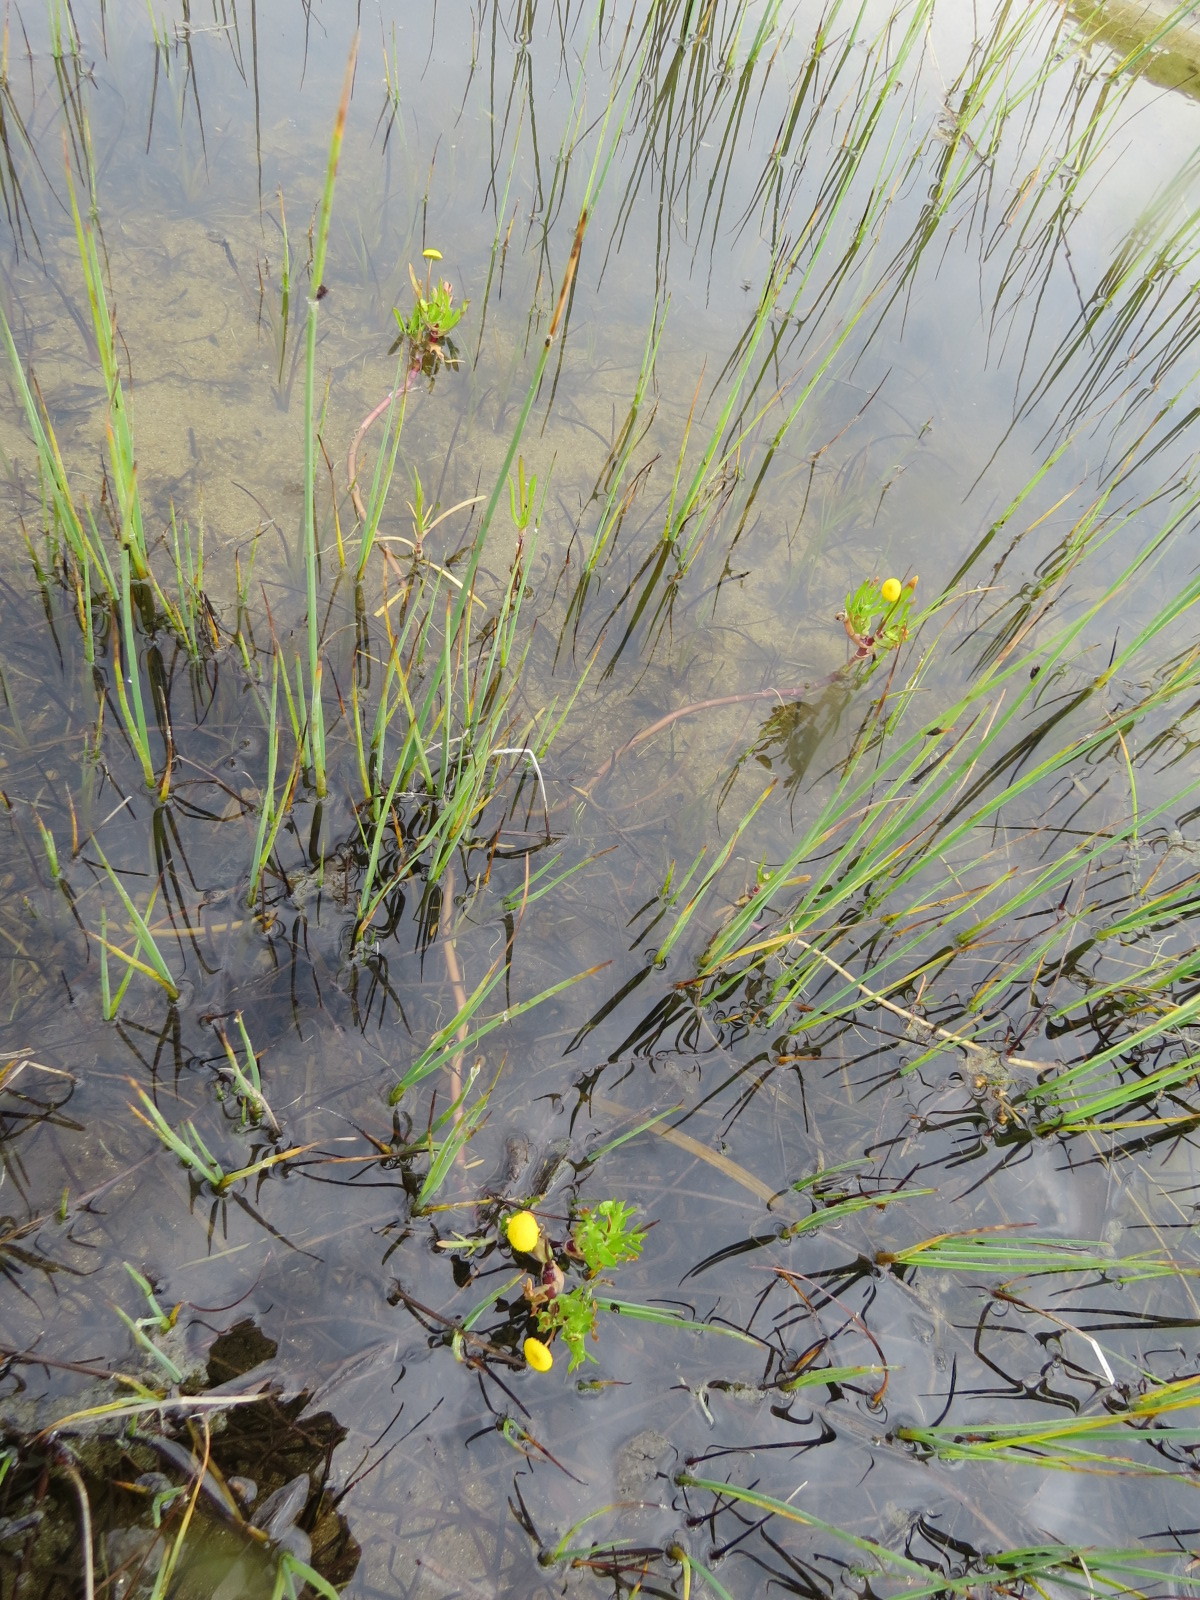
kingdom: Plantae
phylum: Tracheophyta
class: Magnoliopsida
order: Asterales
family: Asteraceae
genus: Cotula
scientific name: Cotula coronopifolia
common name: Buttonweed
